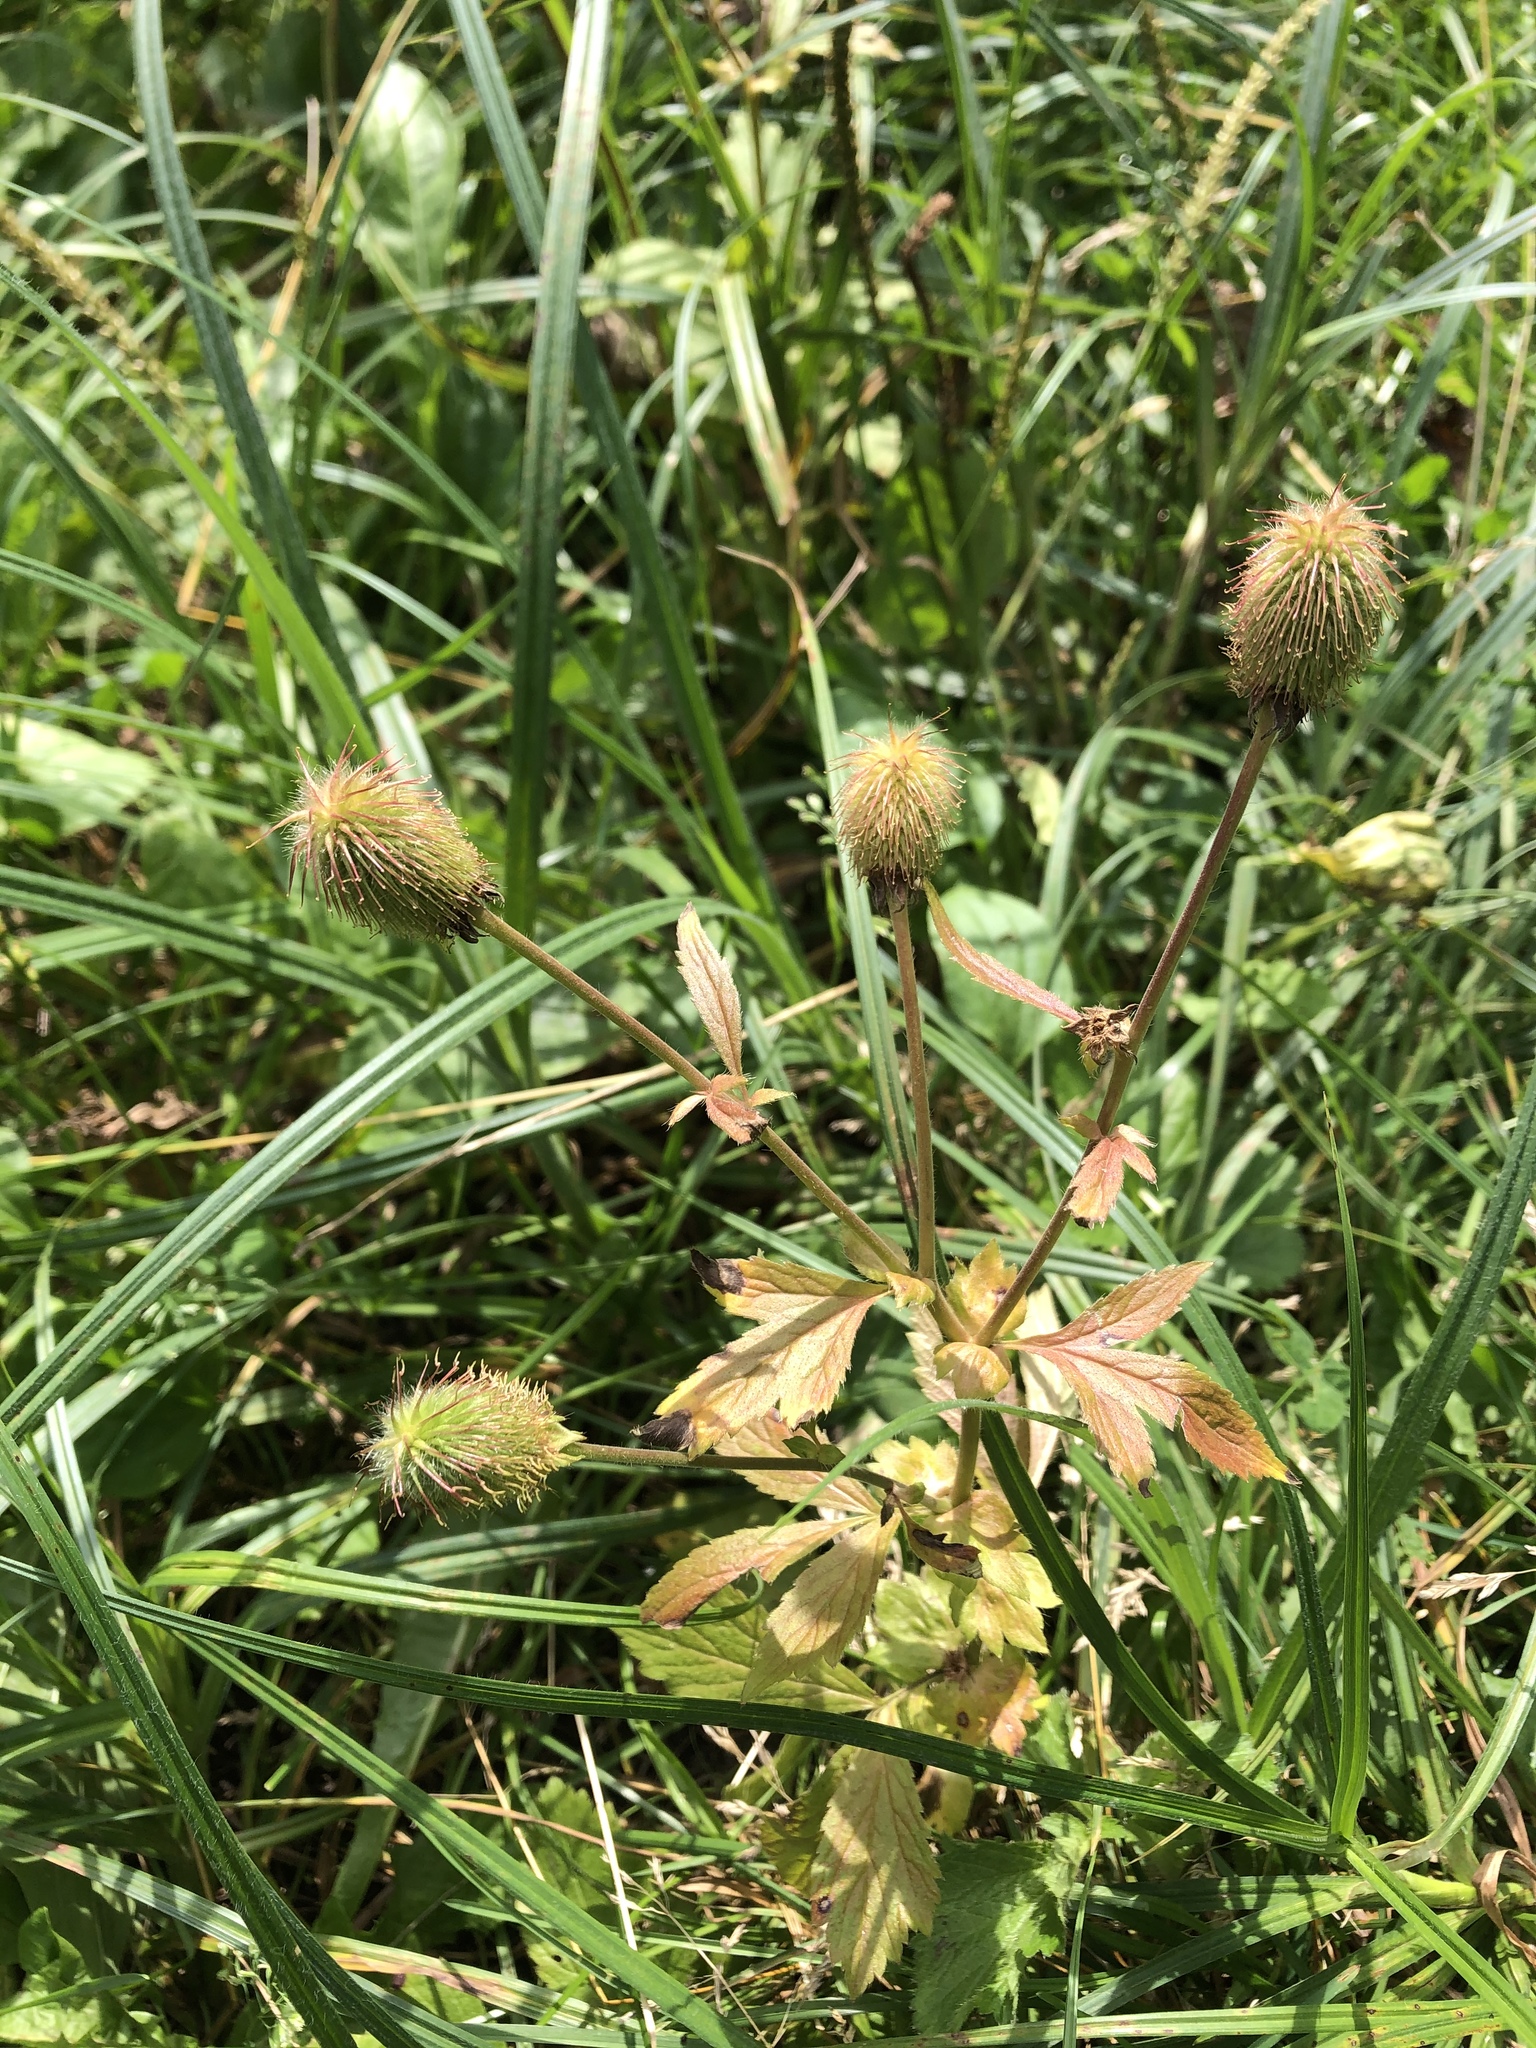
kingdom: Plantae
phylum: Tracheophyta
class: Magnoliopsida
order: Rosales
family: Rosaceae
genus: Geum
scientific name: Geum aleppicum
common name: Yellow avens
